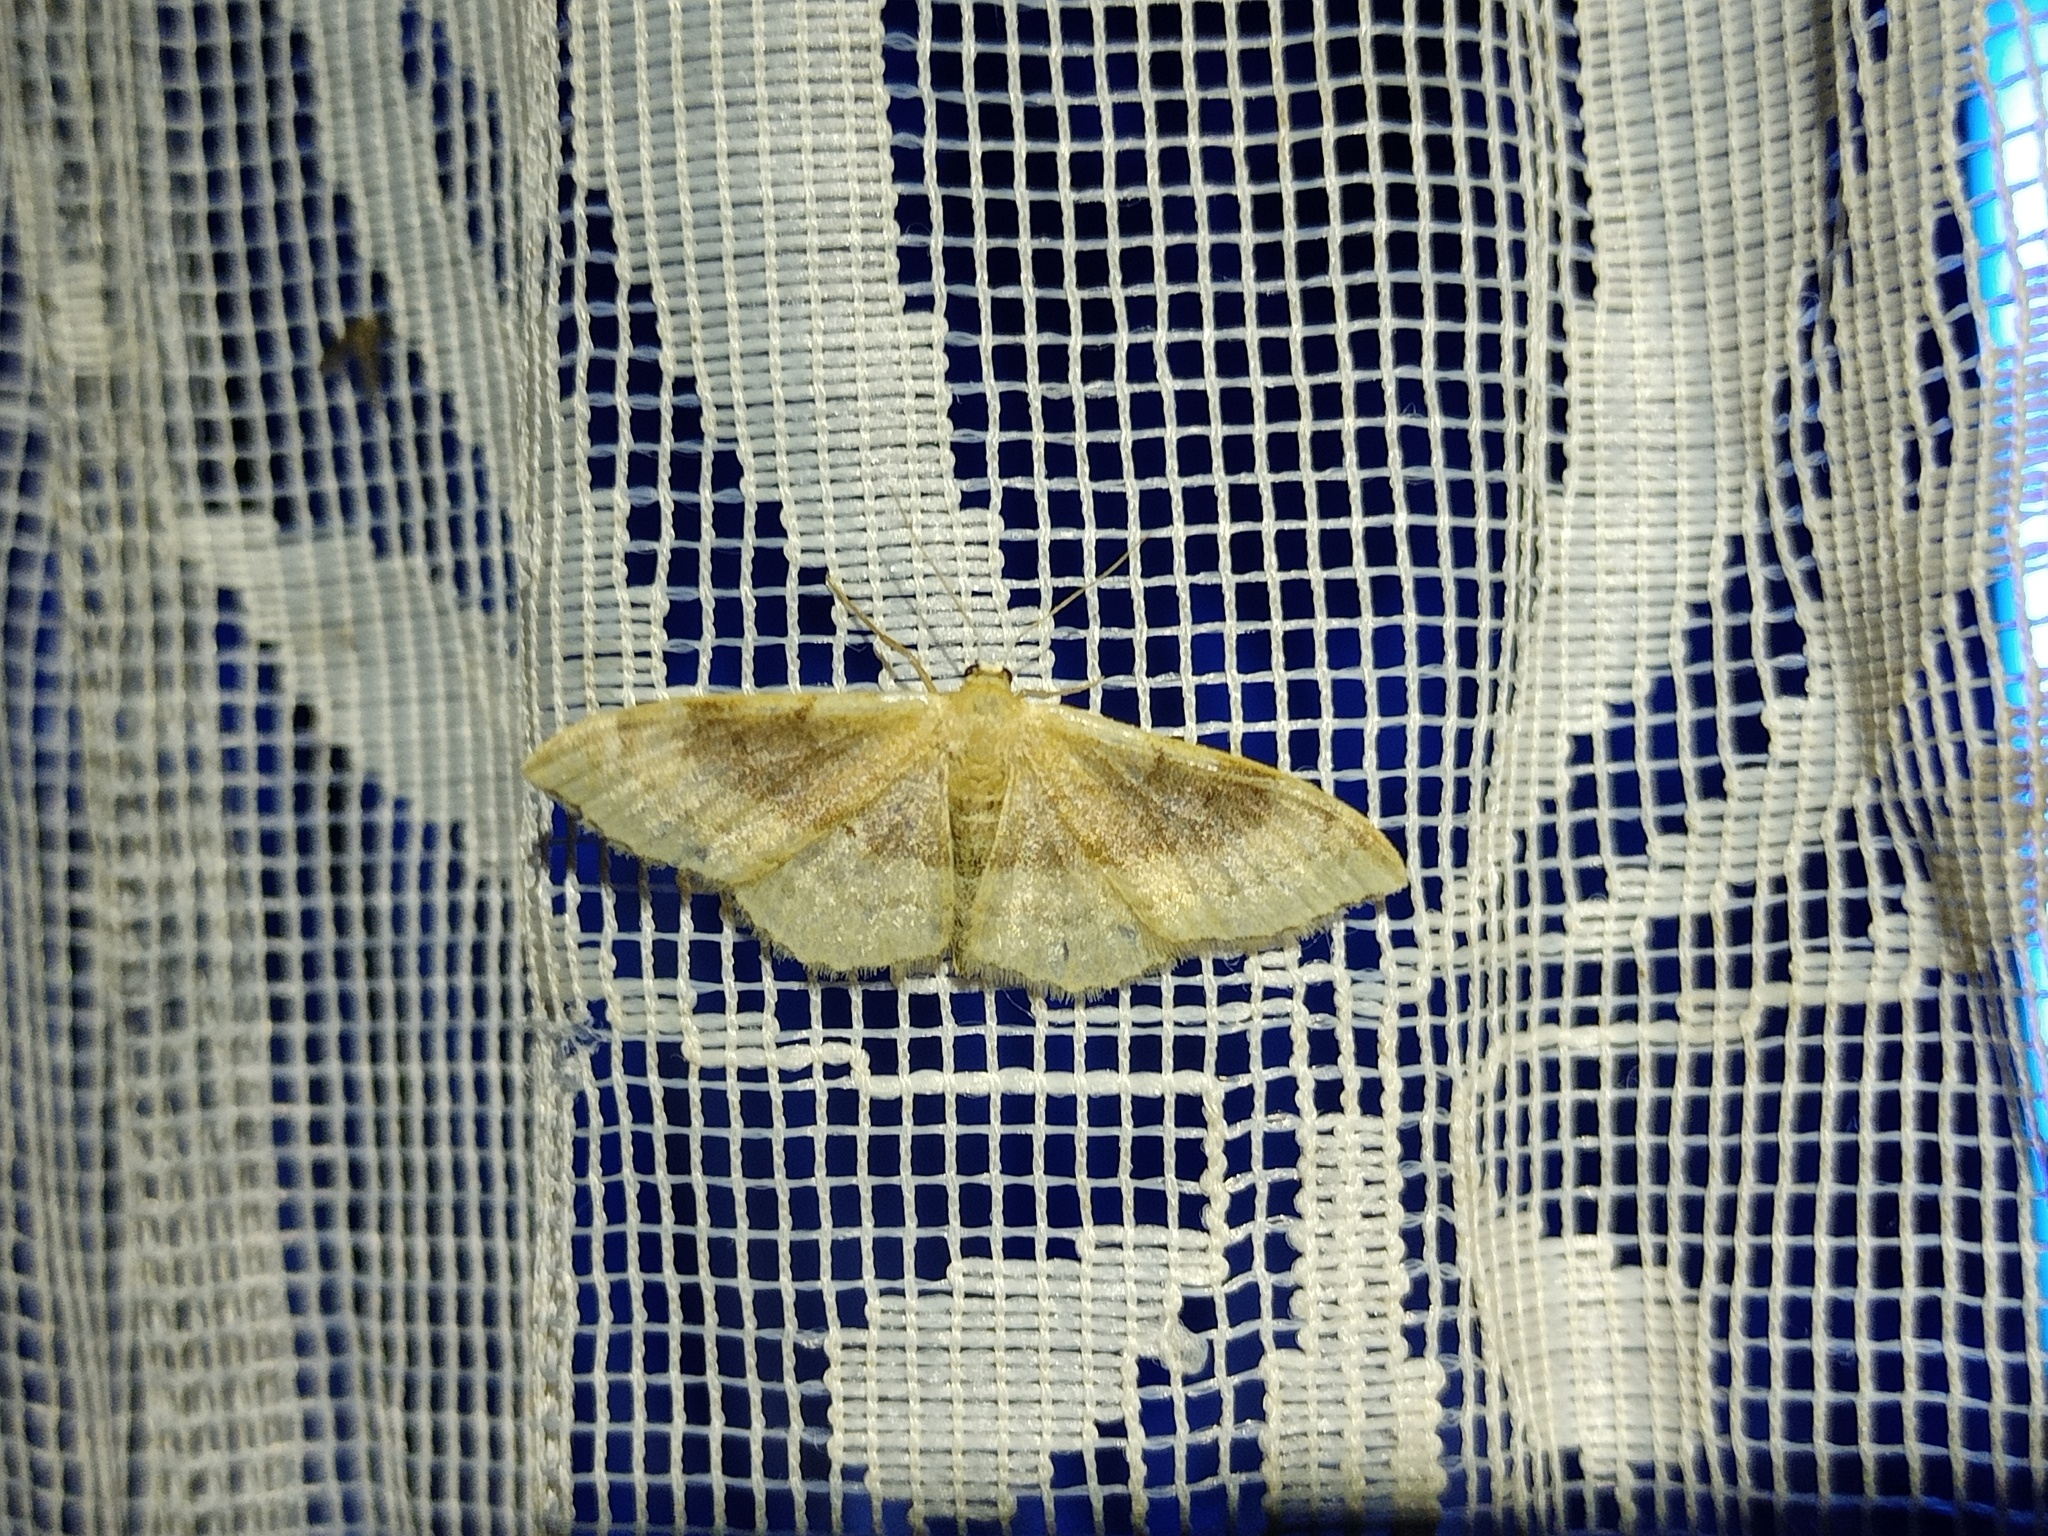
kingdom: Animalia
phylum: Arthropoda
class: Insecta
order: Lepidoptera
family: Geometridae
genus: Idaea
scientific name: Idaea degeneraria
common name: Portland ribbon wave
